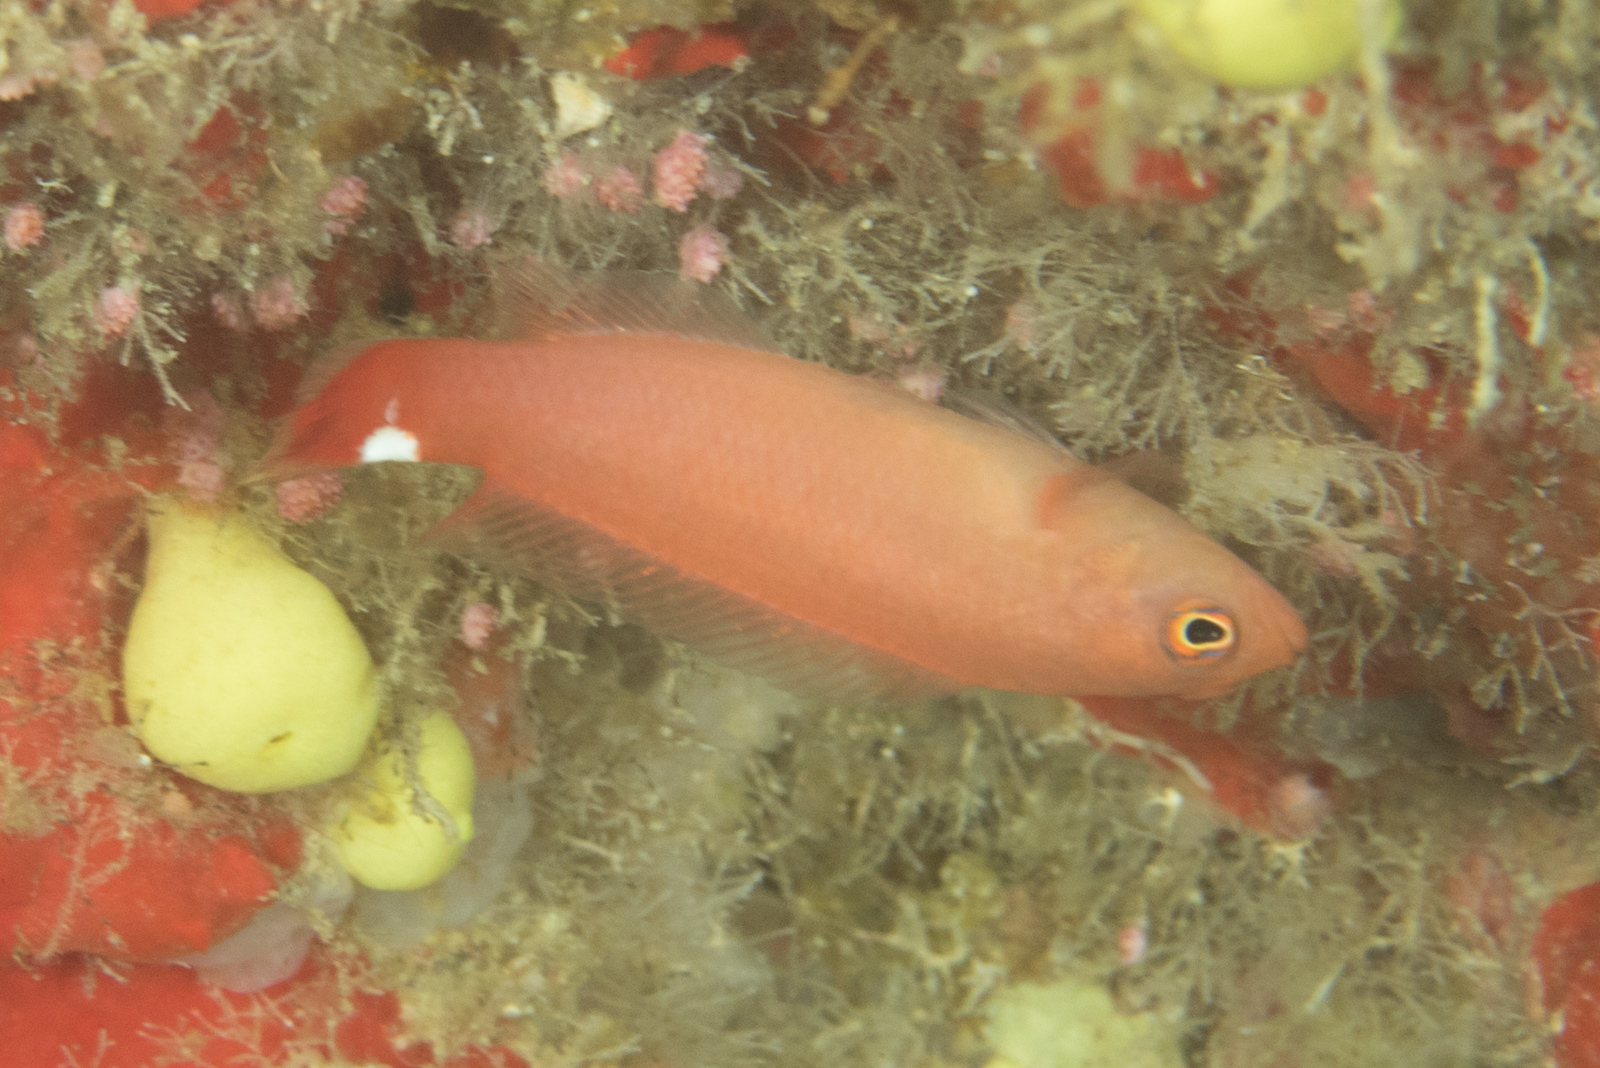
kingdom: Animalia
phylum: Chordata
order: Perciformes
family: Pseudochromidae
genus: Pseudochromis
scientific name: Pseudochromis jamesi
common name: Spot-tail dottyback
